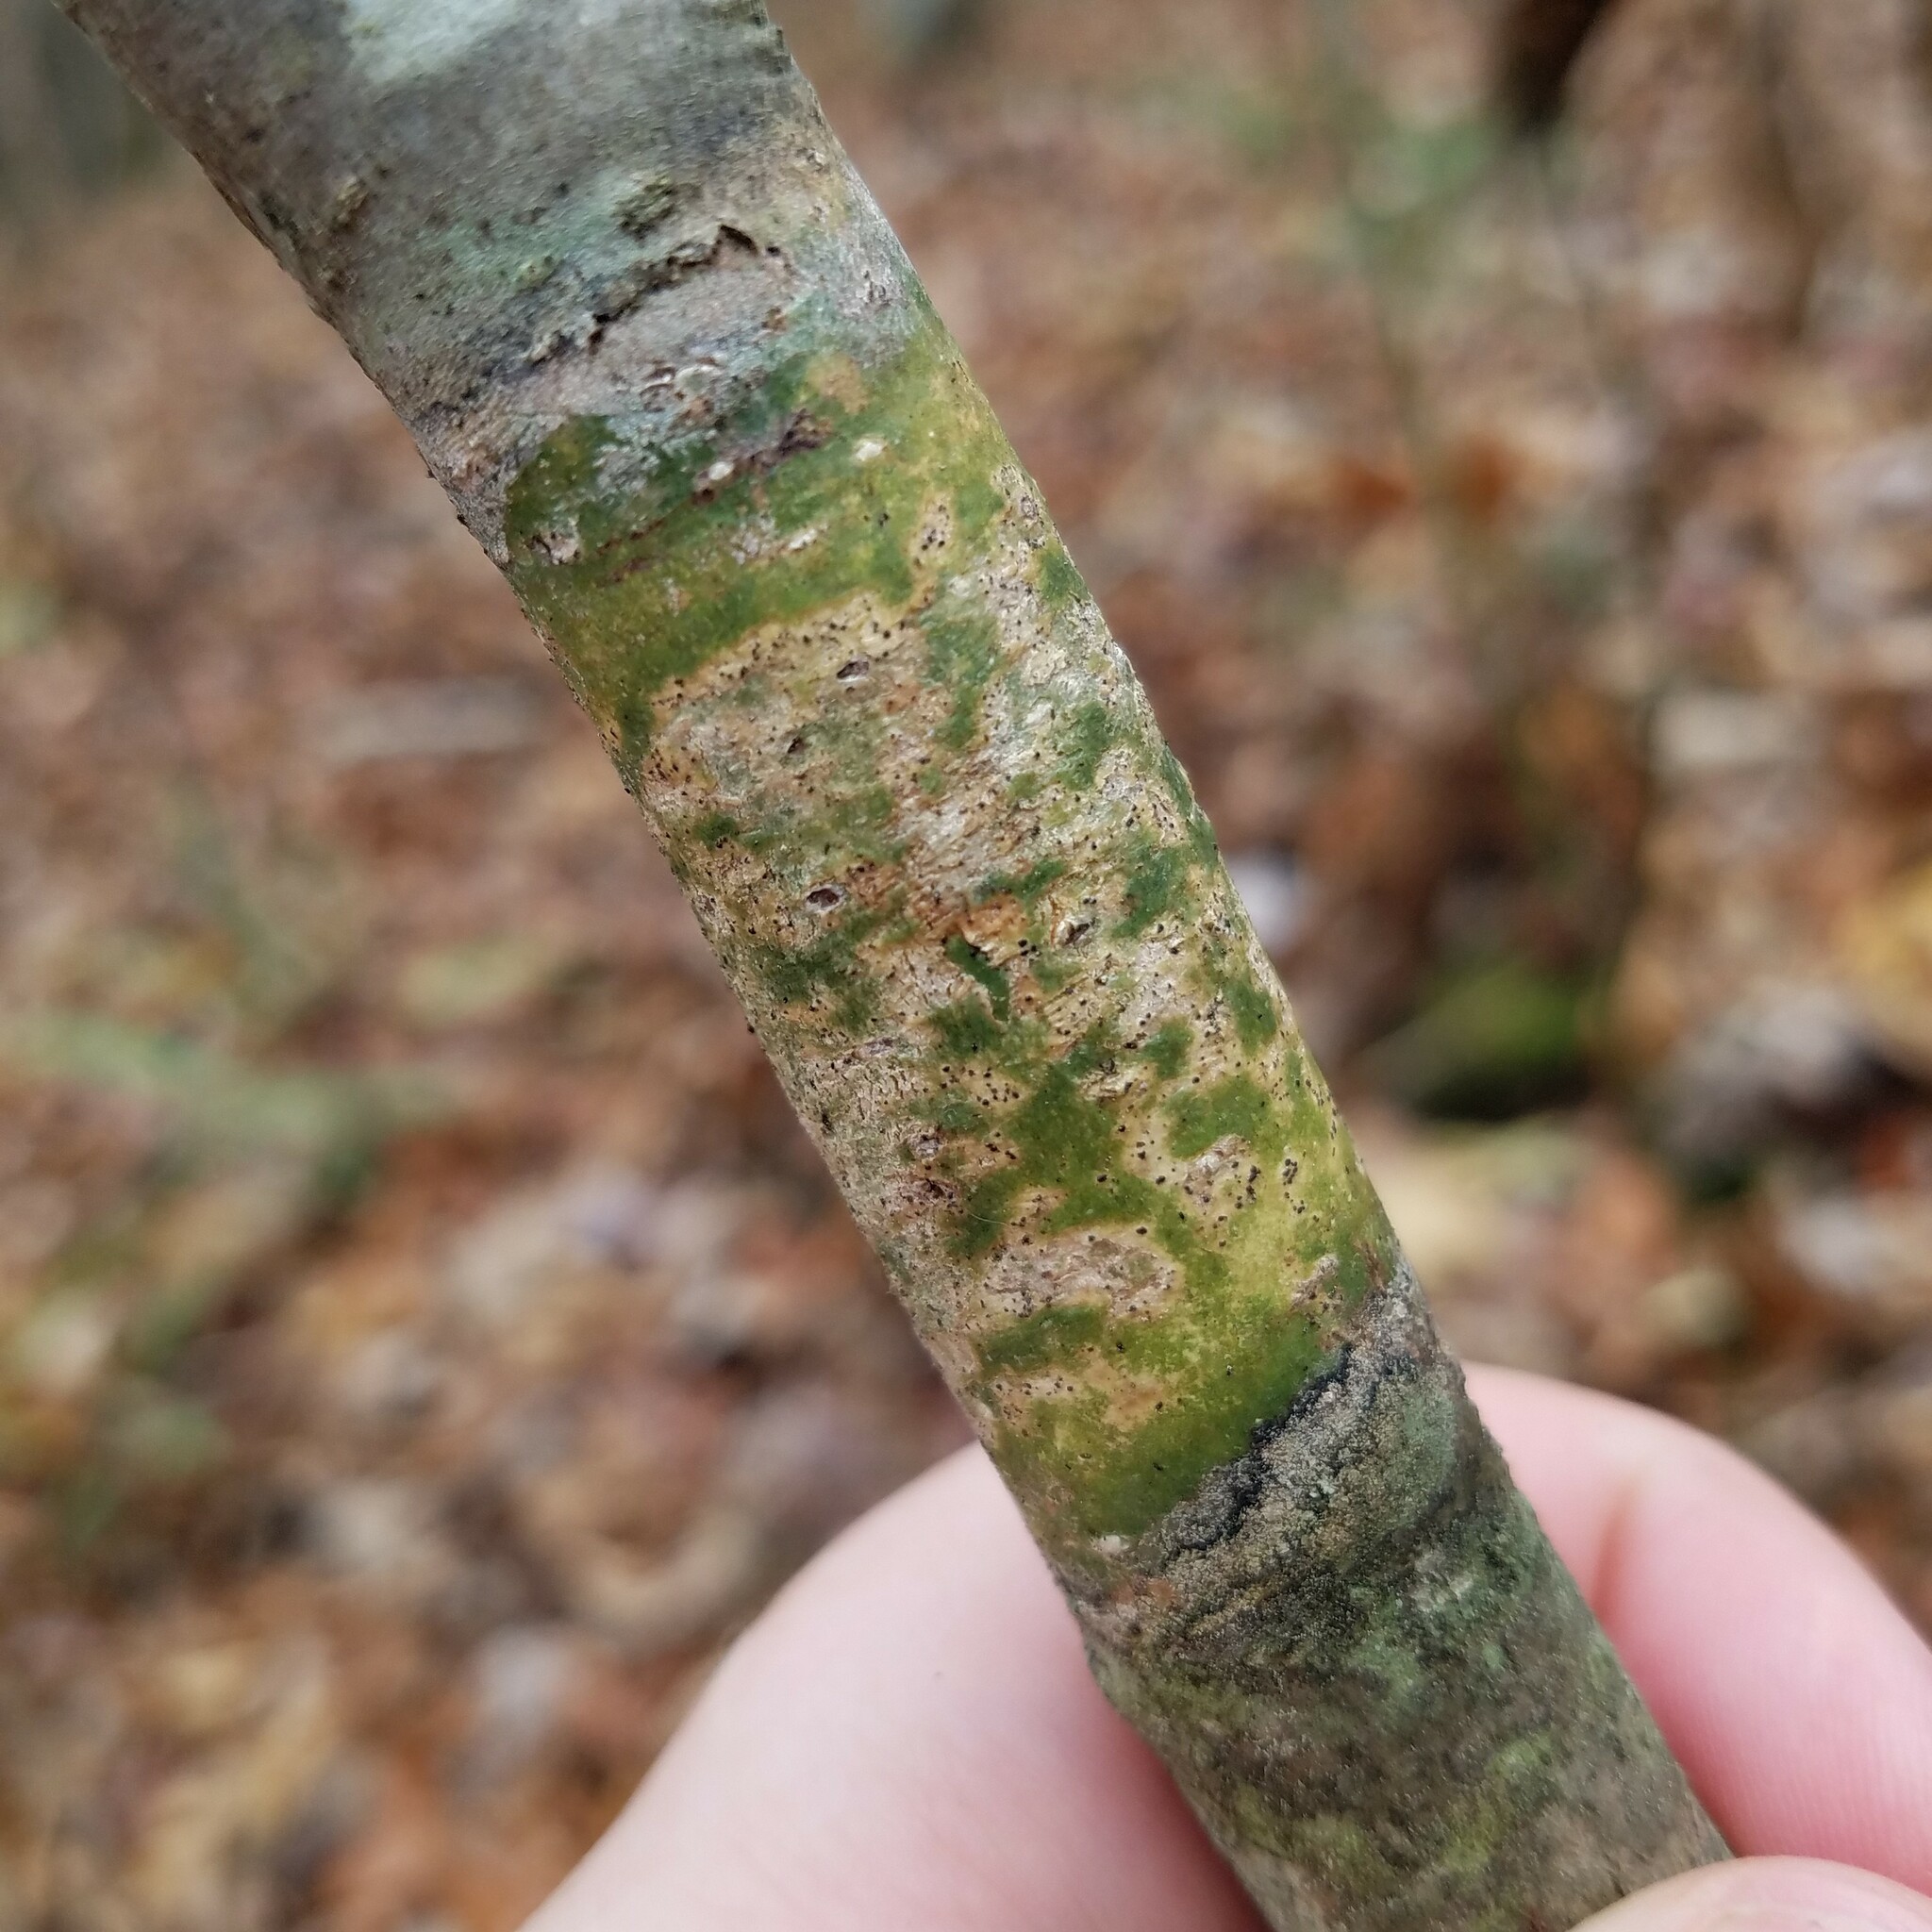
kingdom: Fungi
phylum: Ascomycota
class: Dothideomycetes
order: Trypetheliales
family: Trypetheliaceae
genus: Viridothelium
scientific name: Viridothelium virens
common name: Speckled blister lichen
